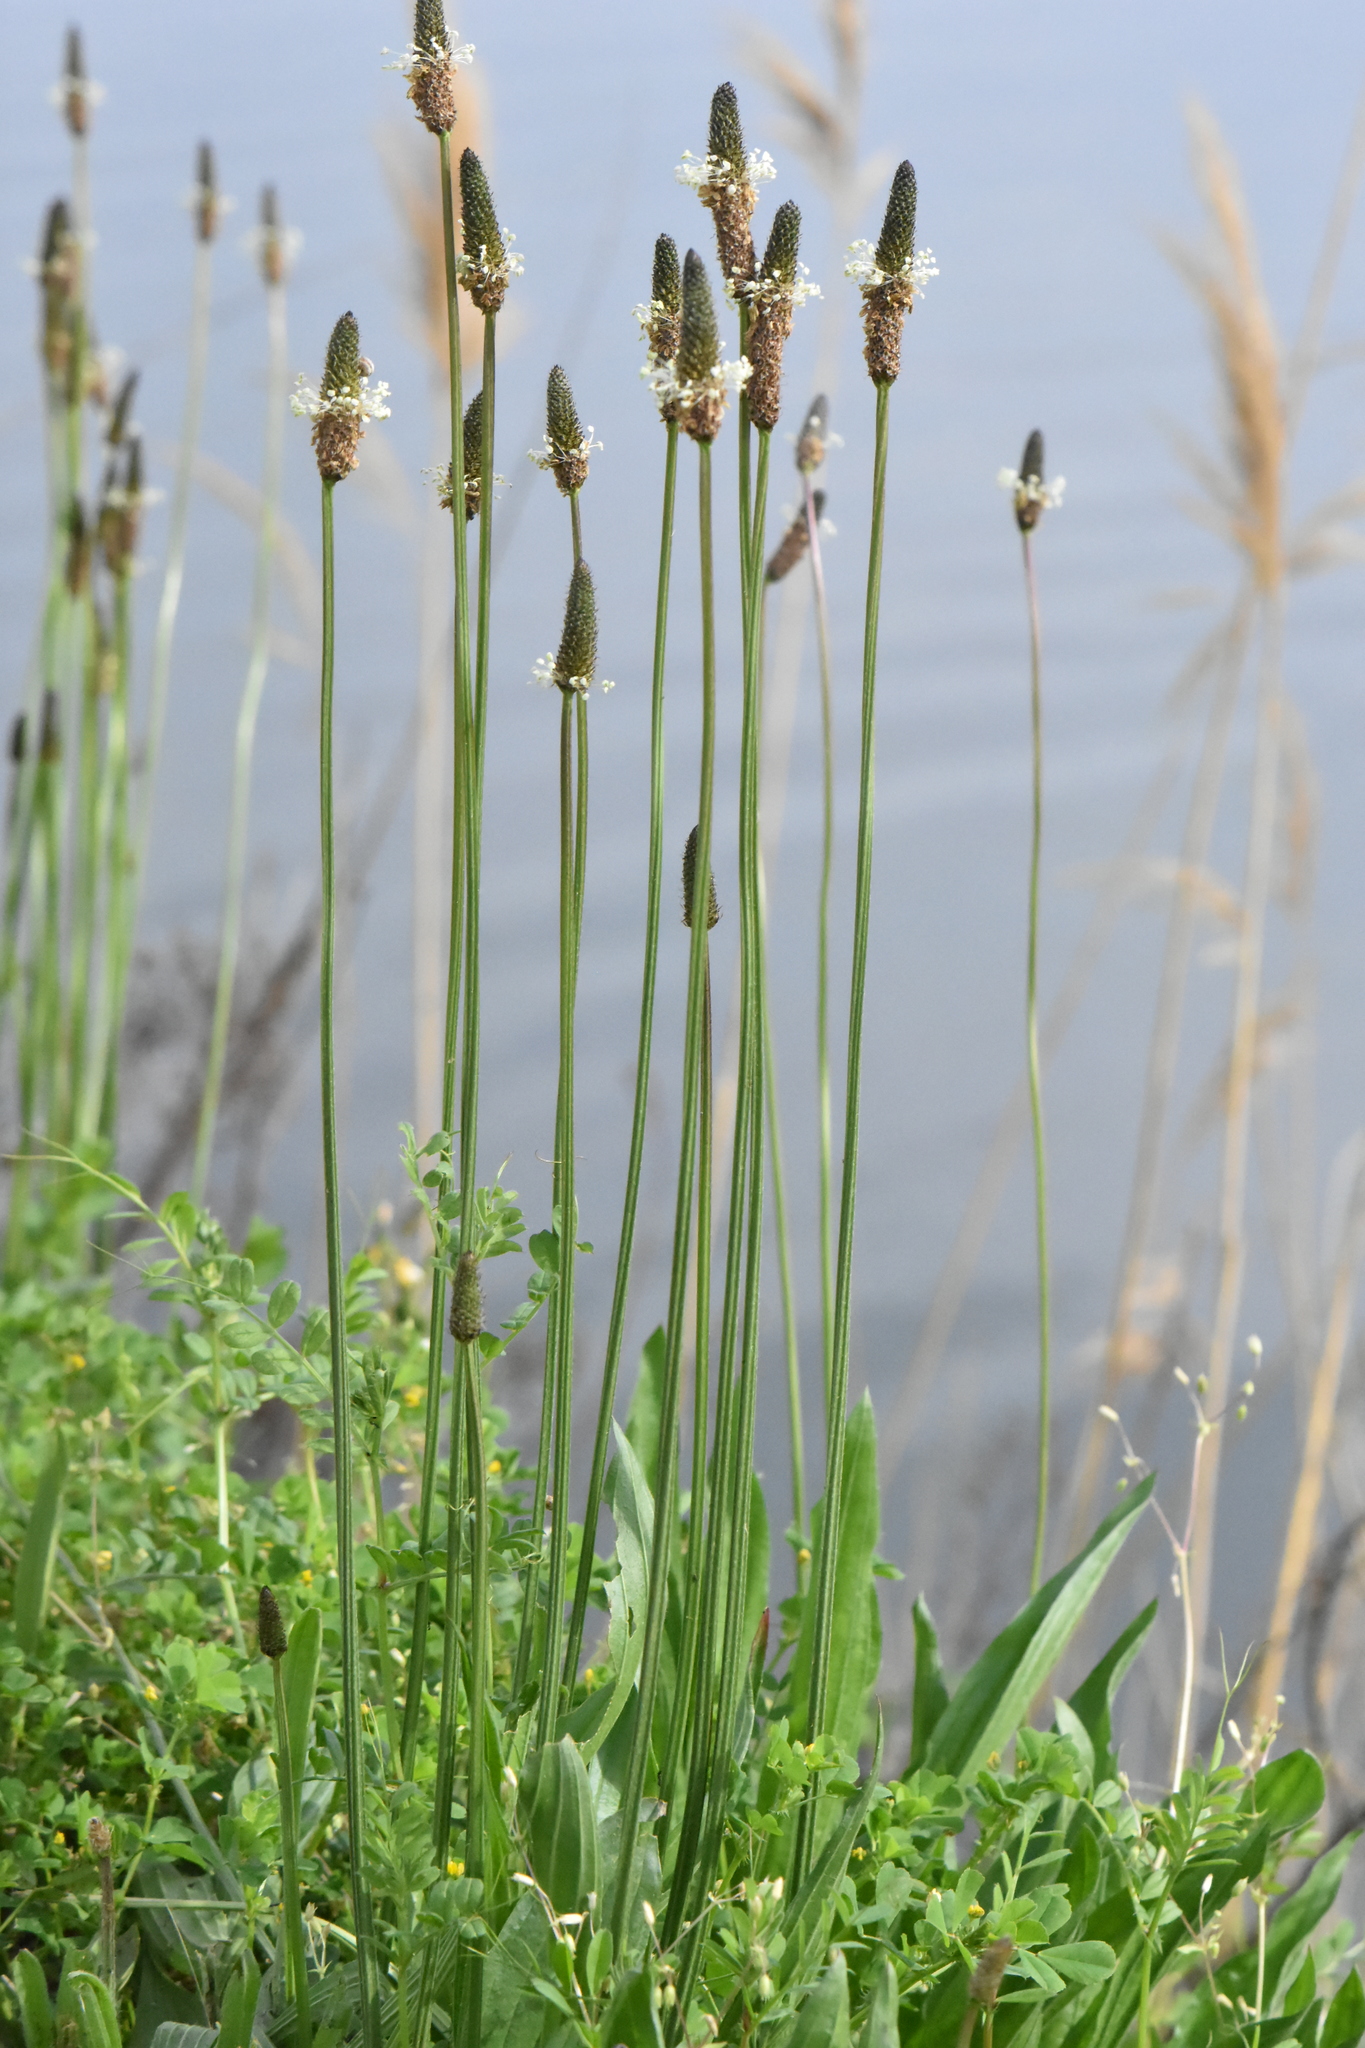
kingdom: Plantae
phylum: Tracheophyta
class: Magnoliopsida
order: Lamiales
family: Plantaginaceae
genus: Plantago
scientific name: Plantago lanceolata
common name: Ribwort plantain
